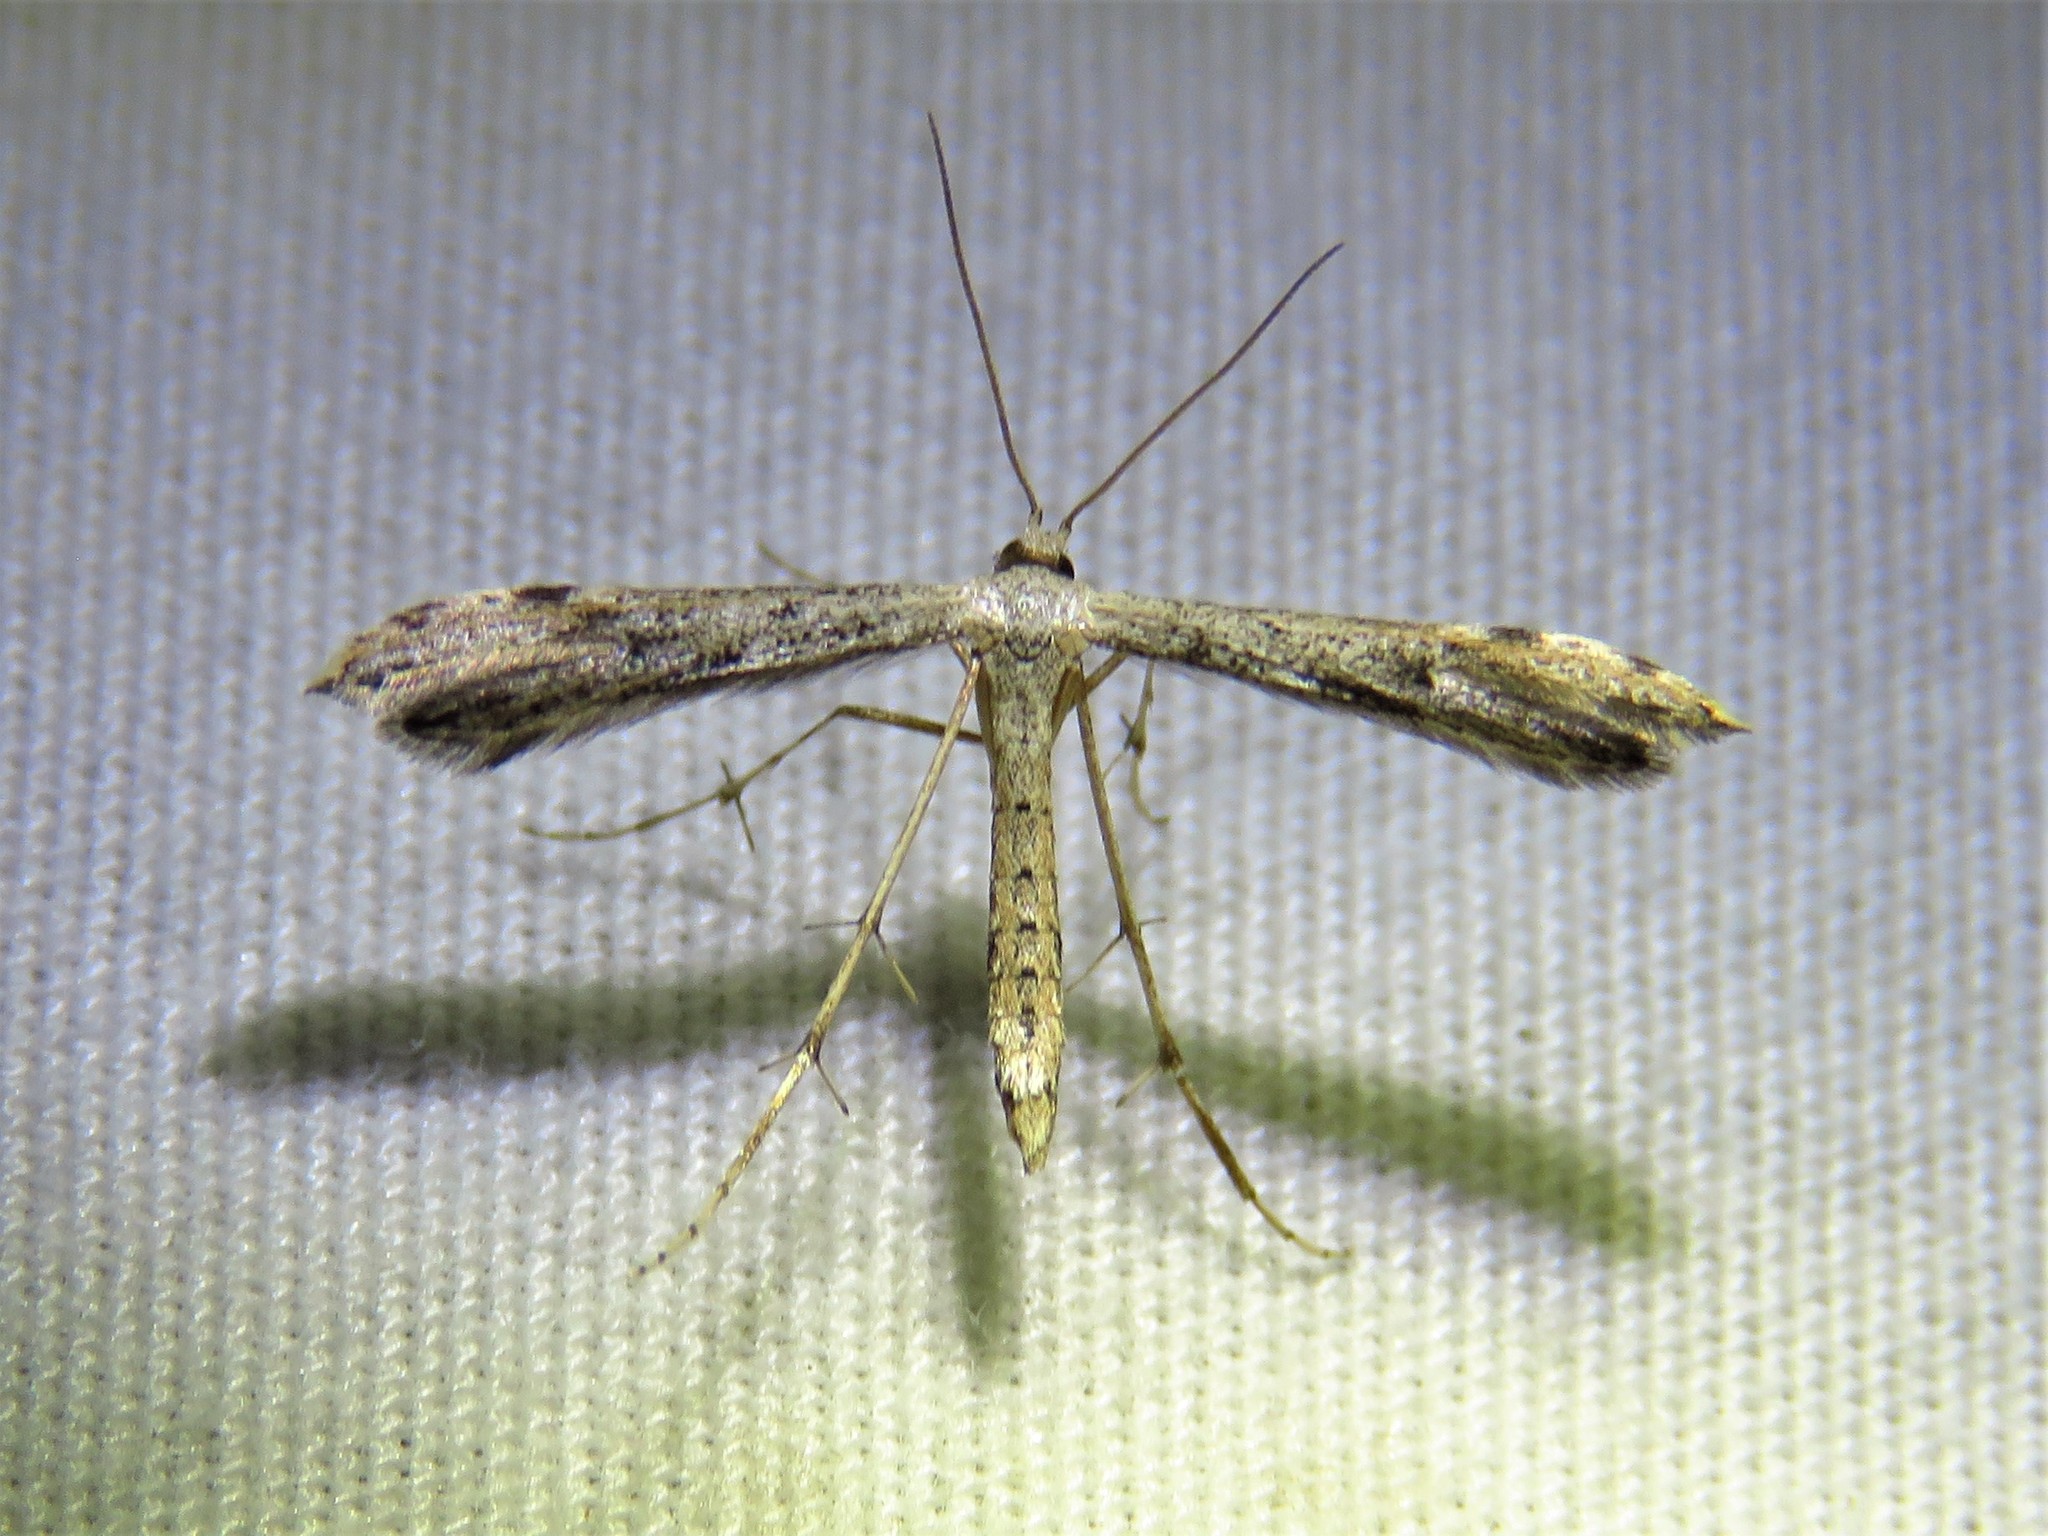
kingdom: Animalia
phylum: Arthropoda
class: Insecta
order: Lepidoptera
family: Pterophoridae
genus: Adaina
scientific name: Adaina ambrosiae
